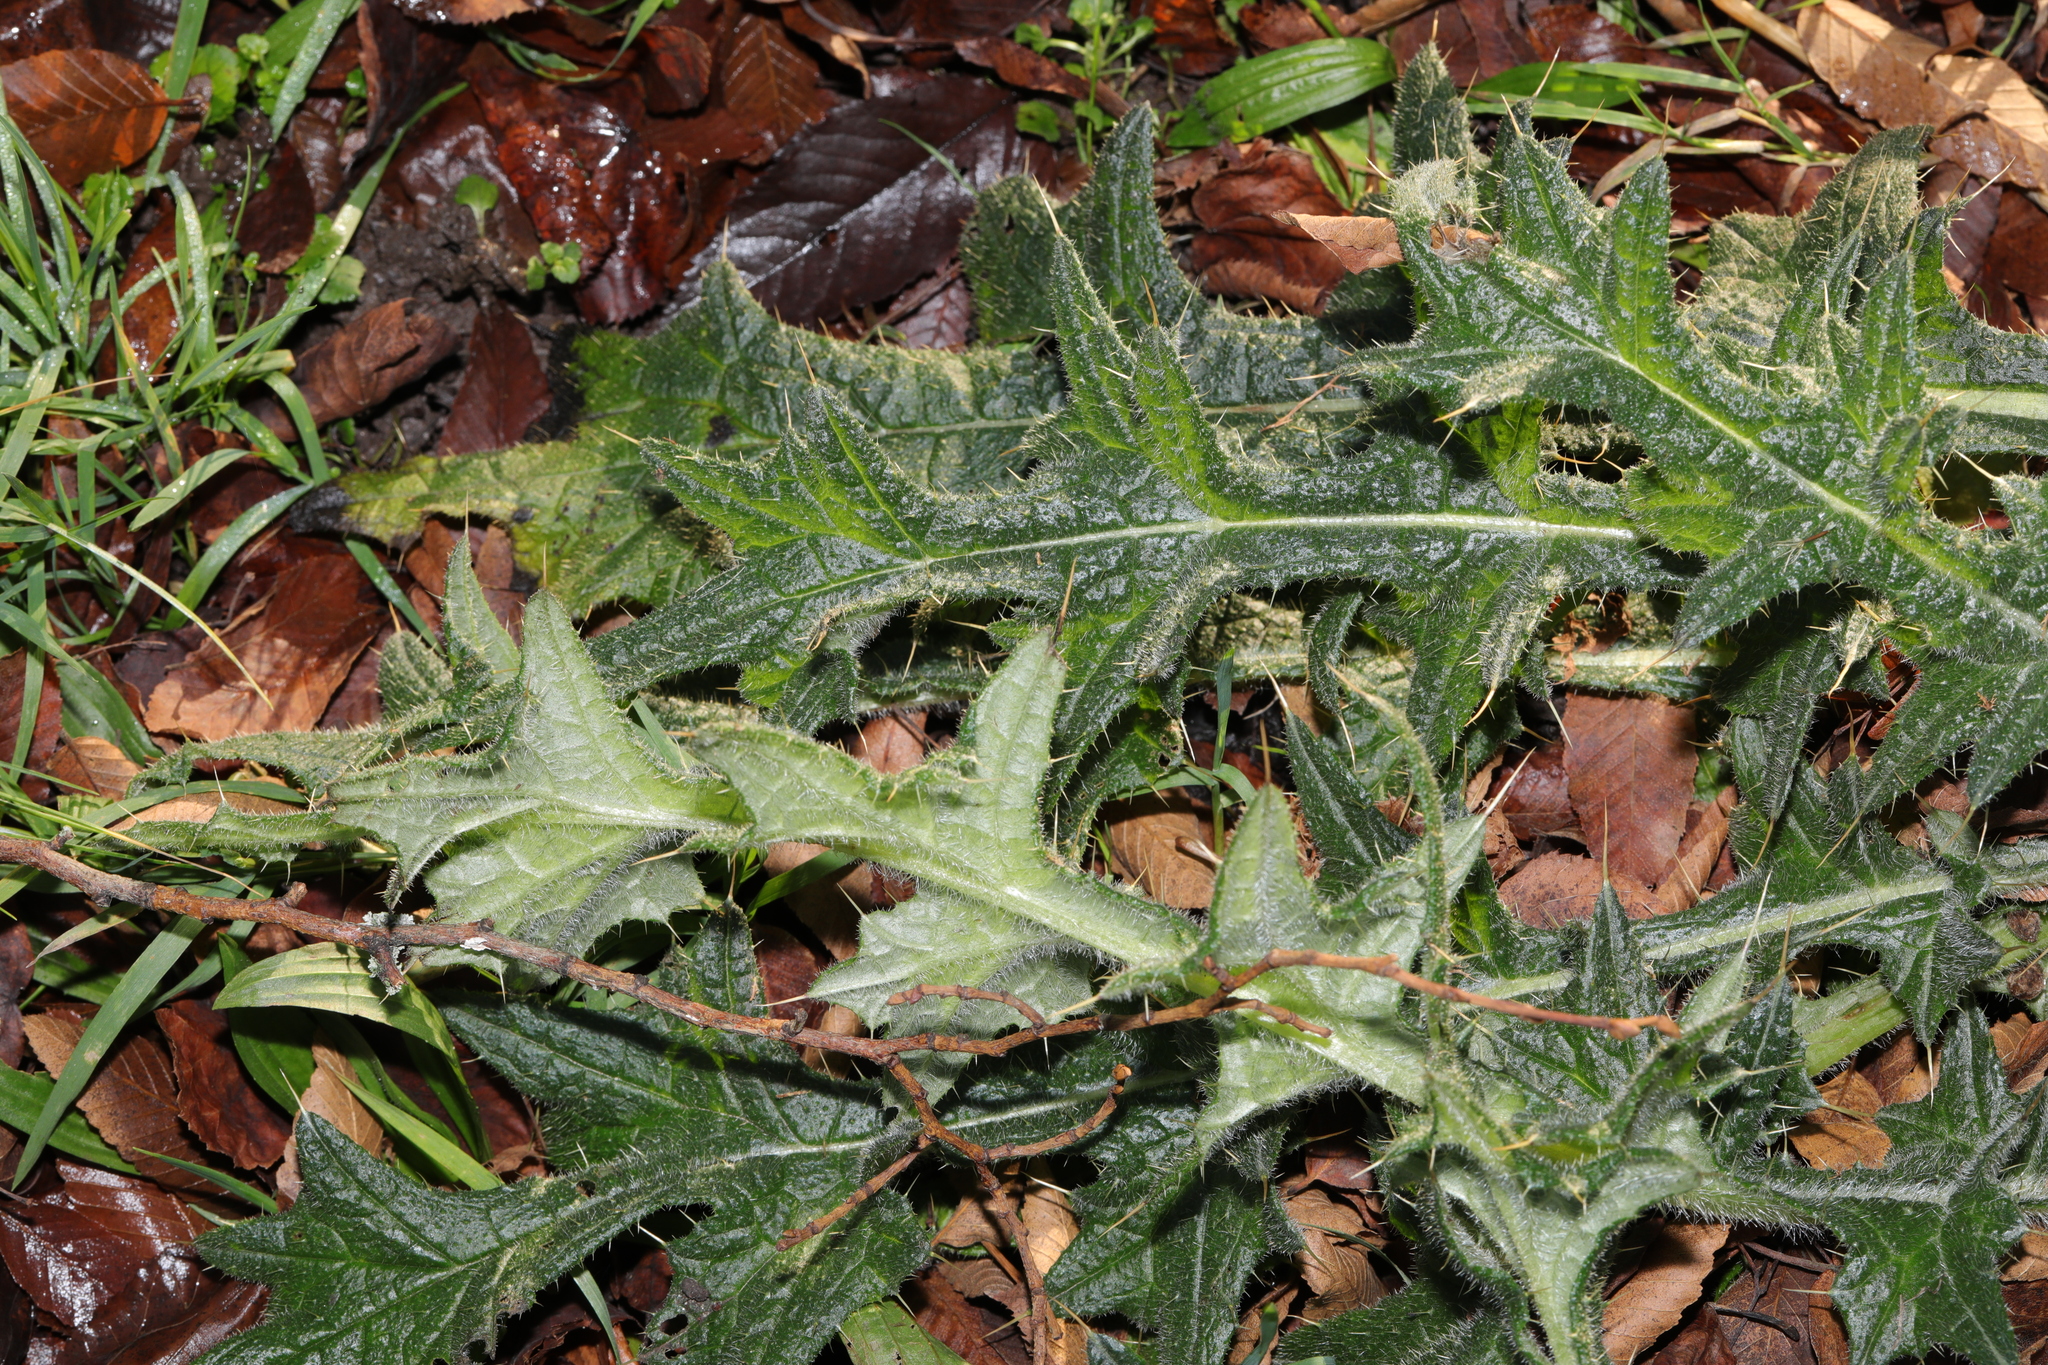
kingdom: Plantae
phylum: Tracheophyta
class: Magnoliopsida
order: Asterales
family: Asteraceae
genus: Cirsium
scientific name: Cirsium vulgare
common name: Bull thistle
